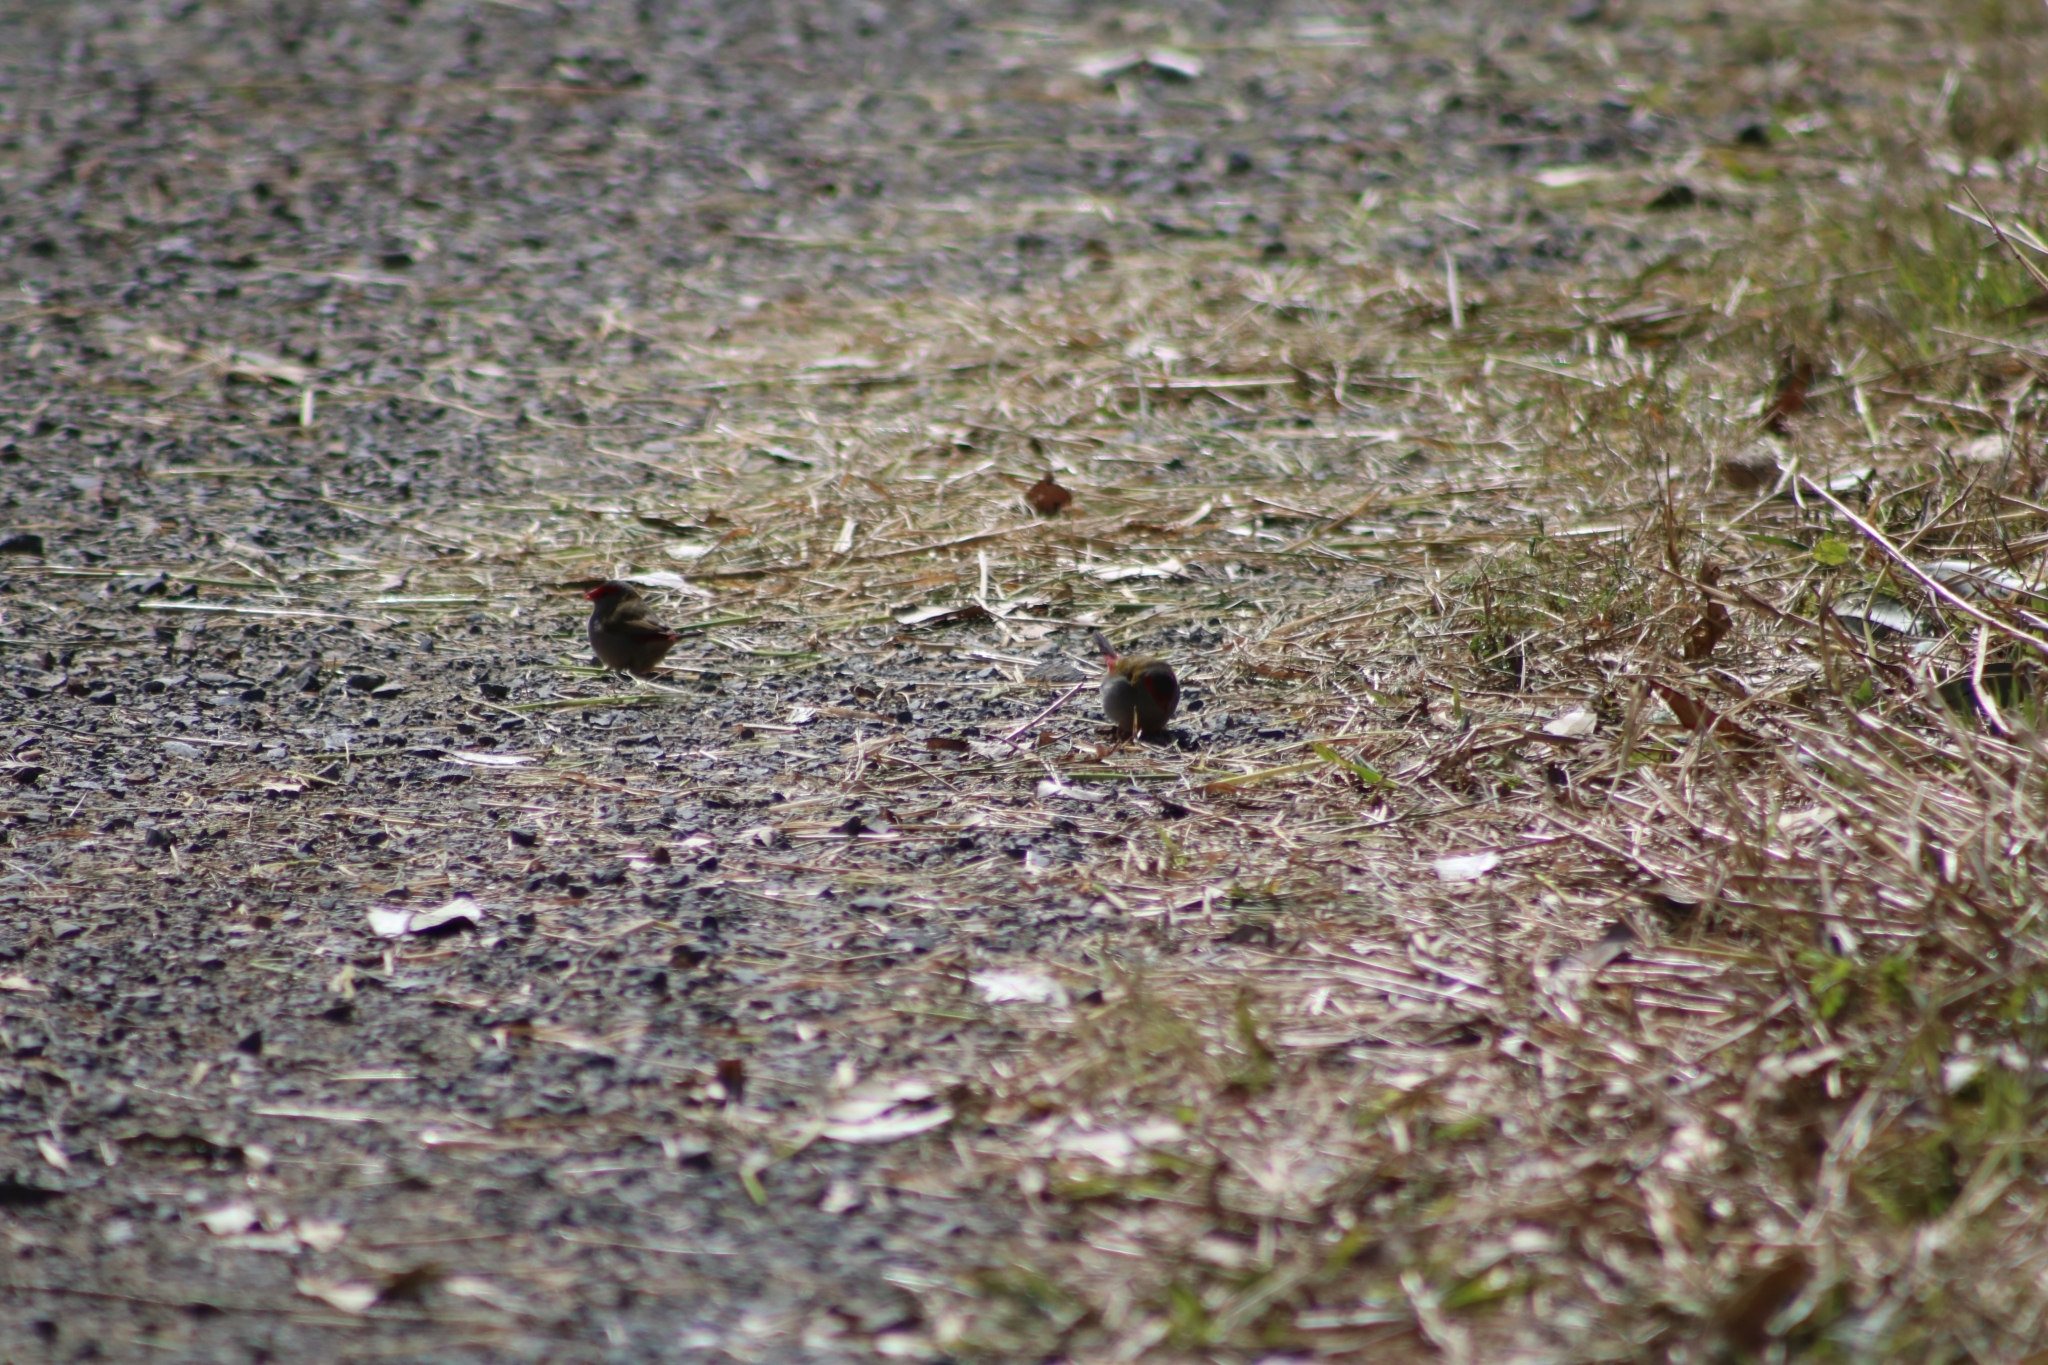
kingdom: Animalia
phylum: Chordata
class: Aves
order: Passeriformes
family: Estrildidae
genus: Neochmia
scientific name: Neochmia temporalis
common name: Red-browed finch
